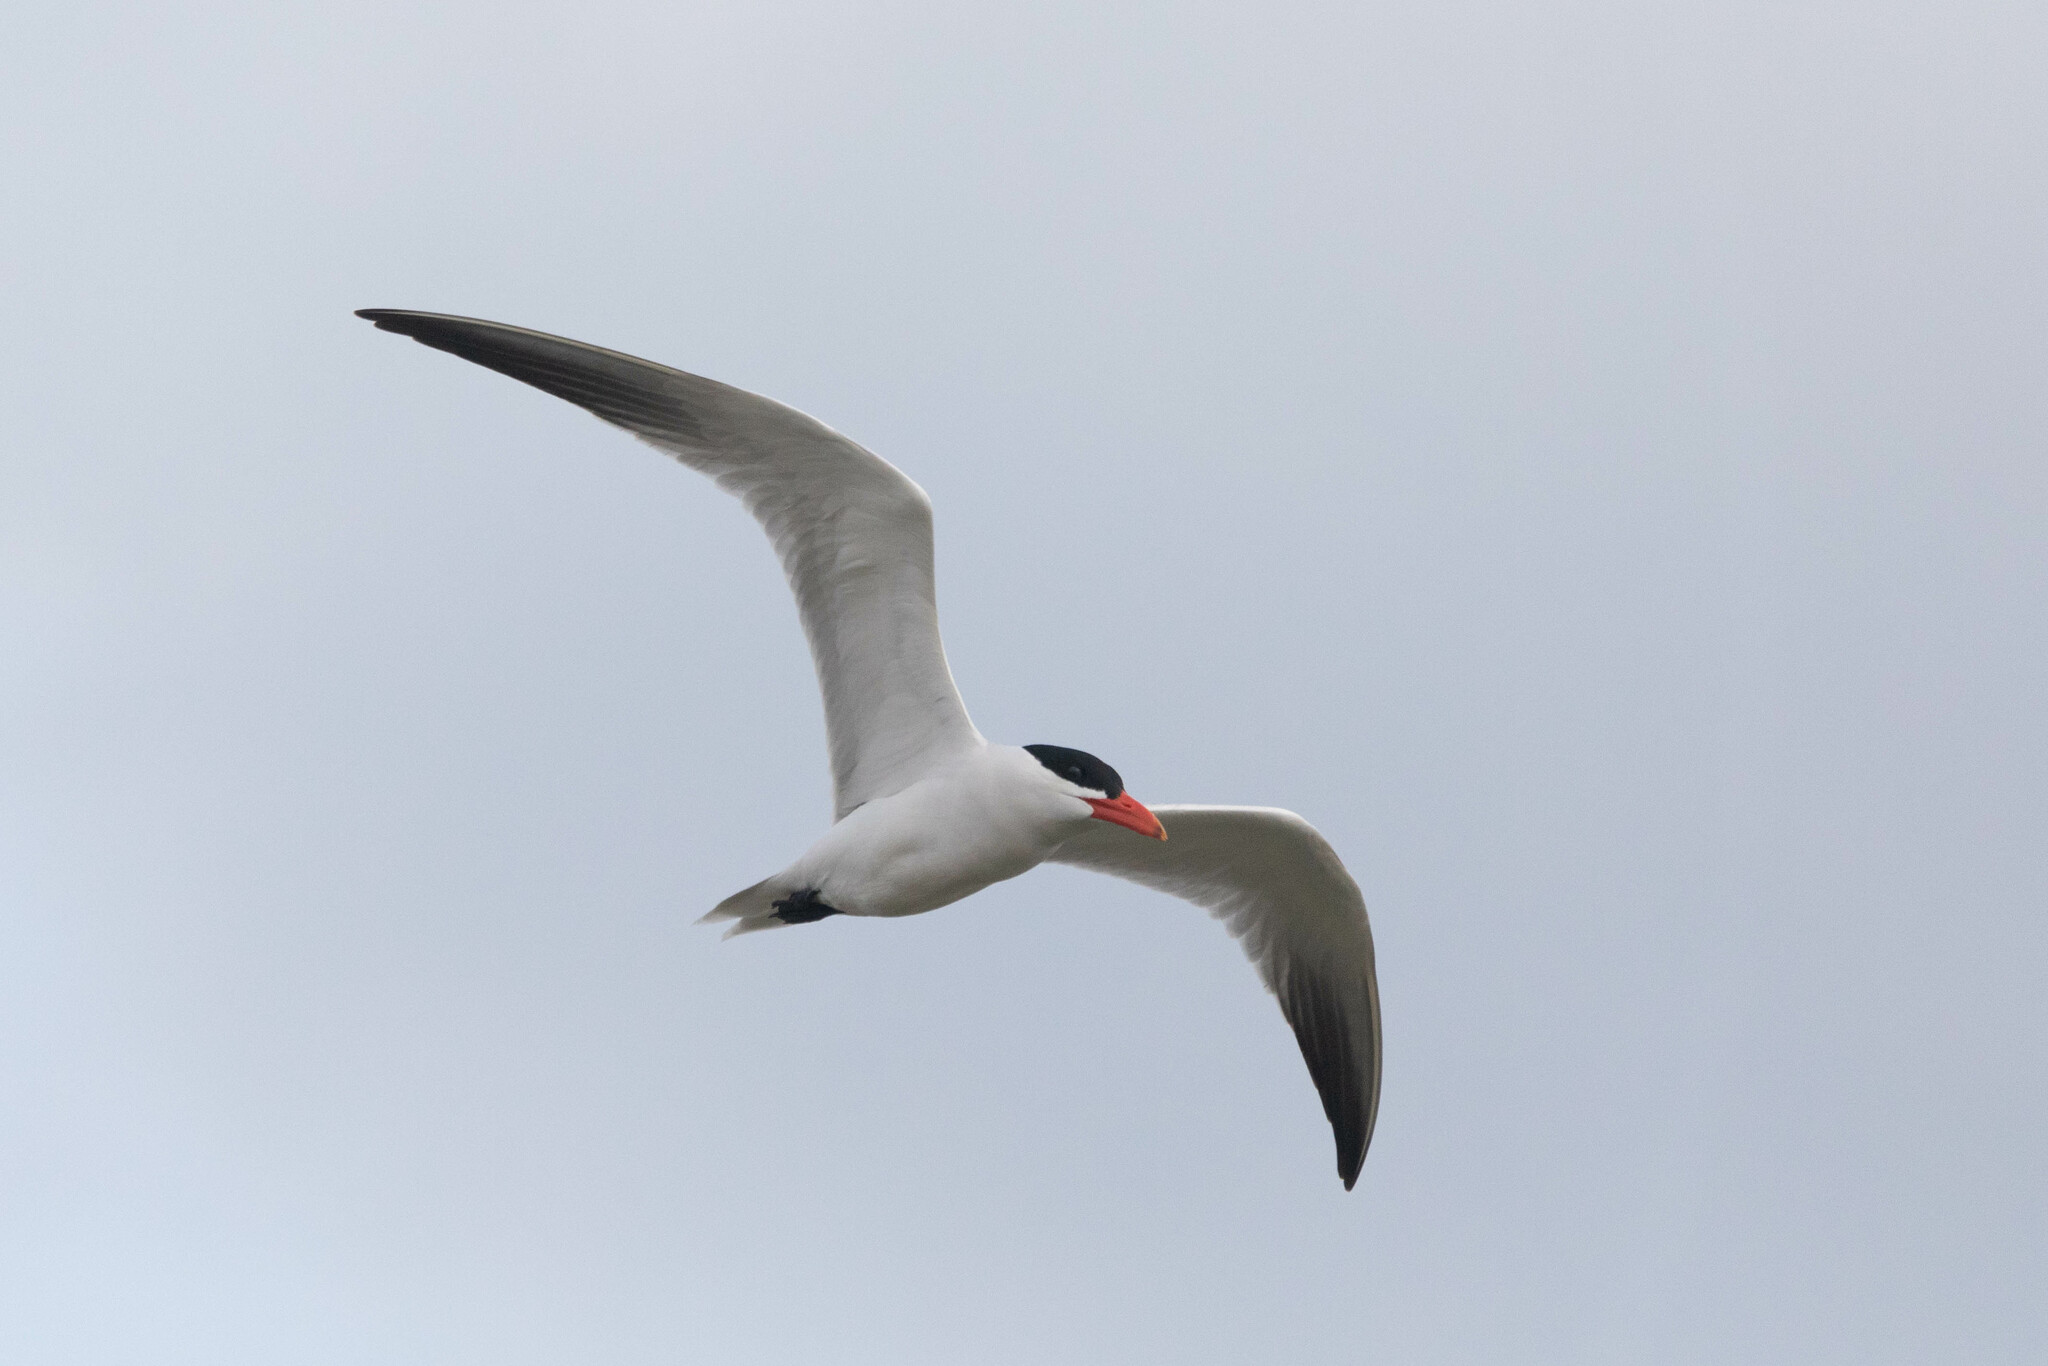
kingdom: Animalia
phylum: Chordata
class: Aves
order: Charadriiformes
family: Laridae
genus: Hydroprogne
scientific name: Hydroprogne caspia
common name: Caspian tern
